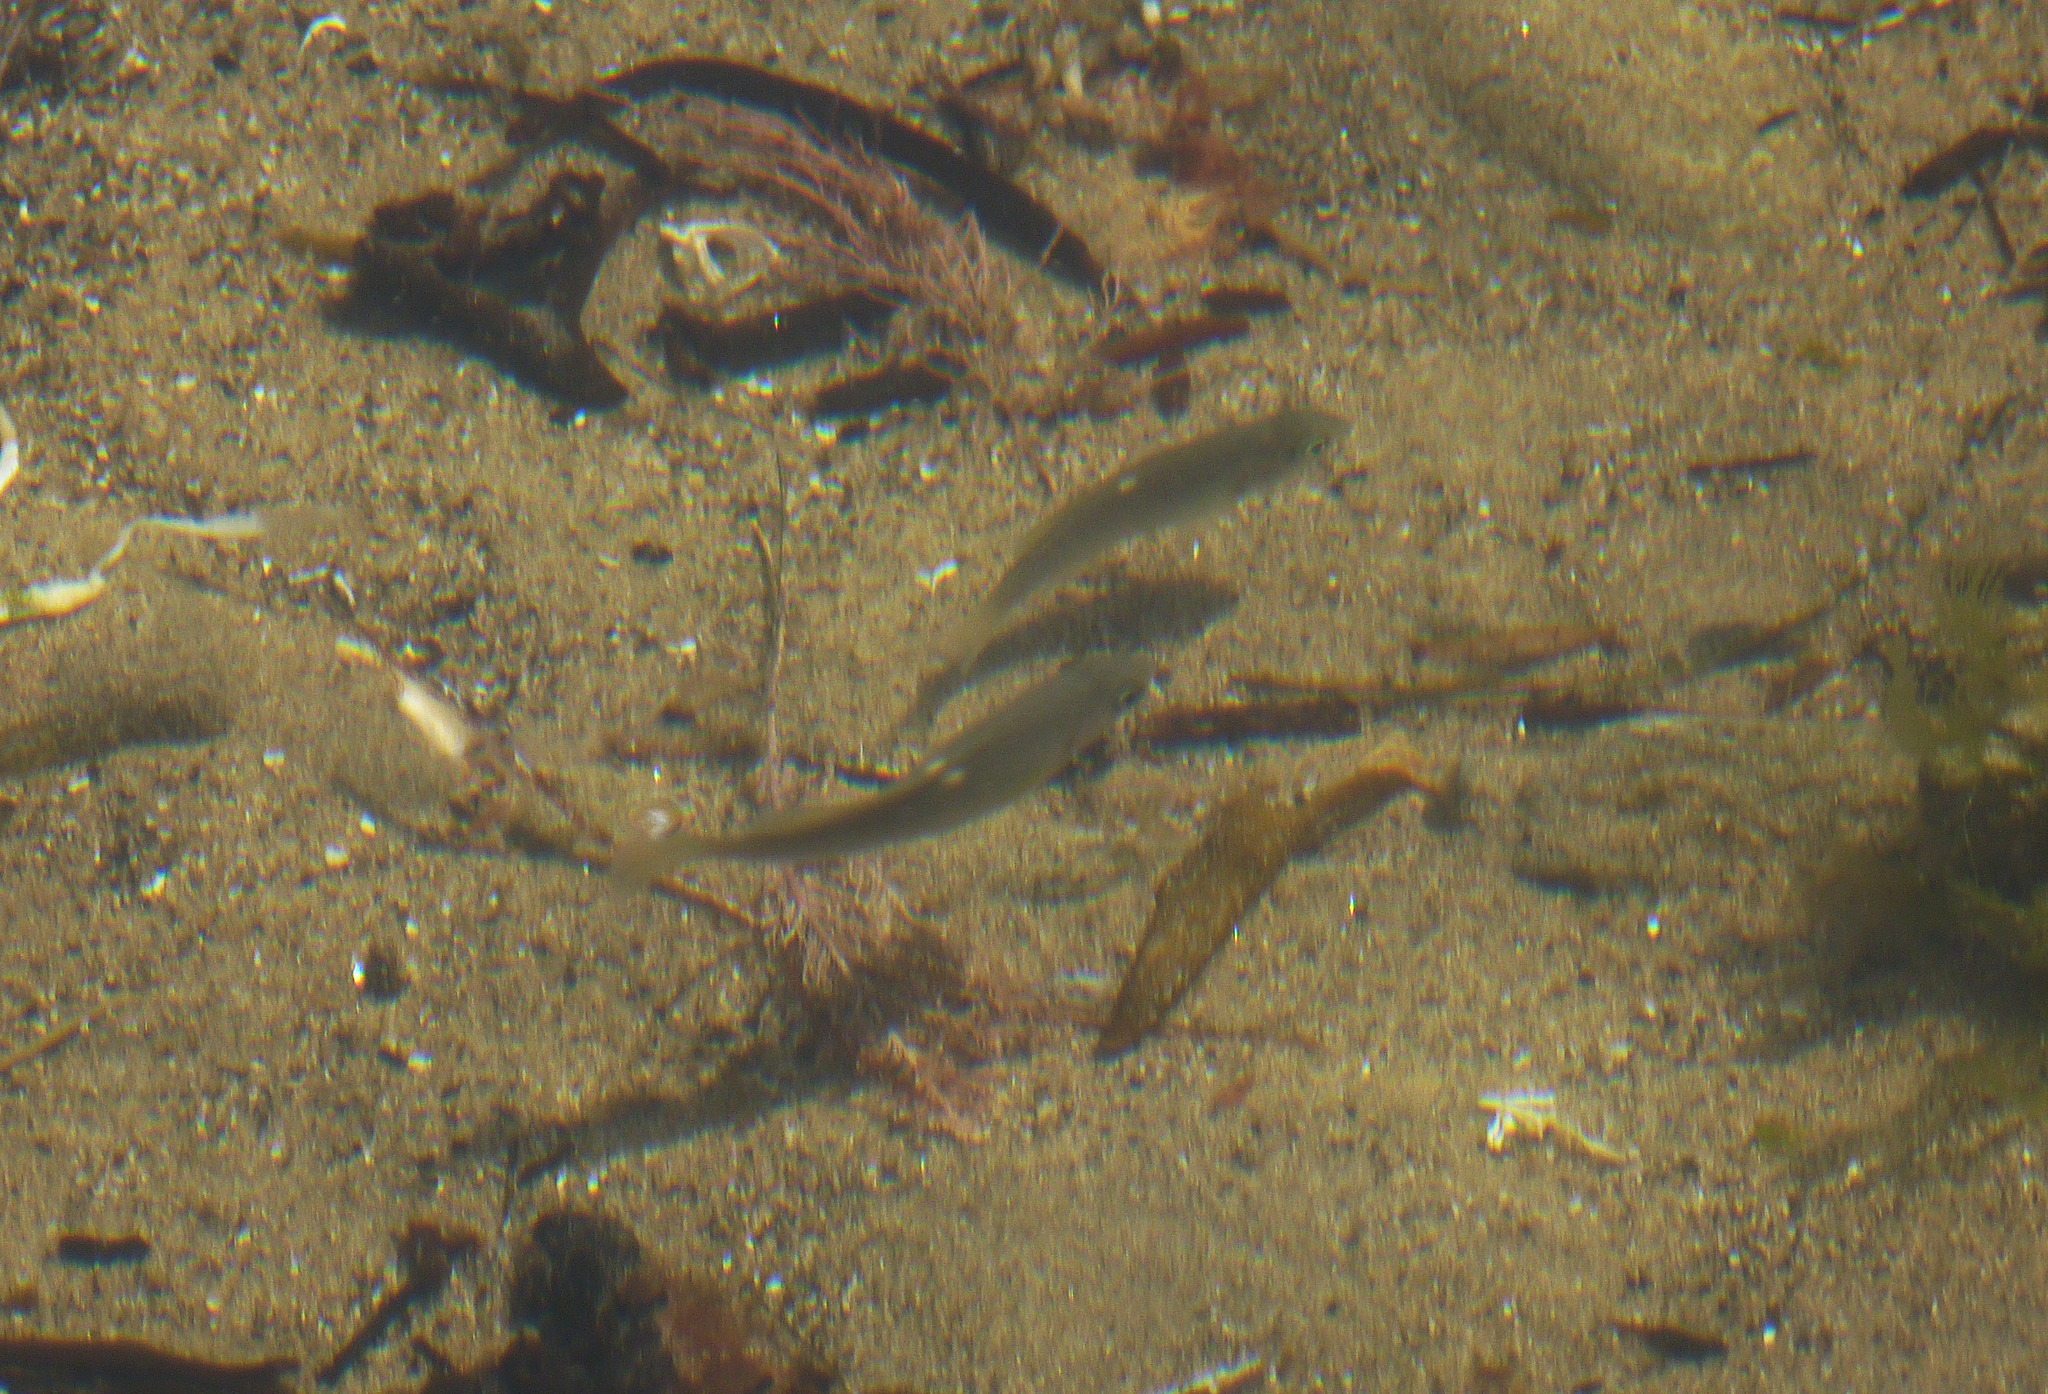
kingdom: Animalia
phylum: Chordata
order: Perciformes
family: Kyphosidae
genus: Girella
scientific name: Girella nigricans
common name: Opaleye
